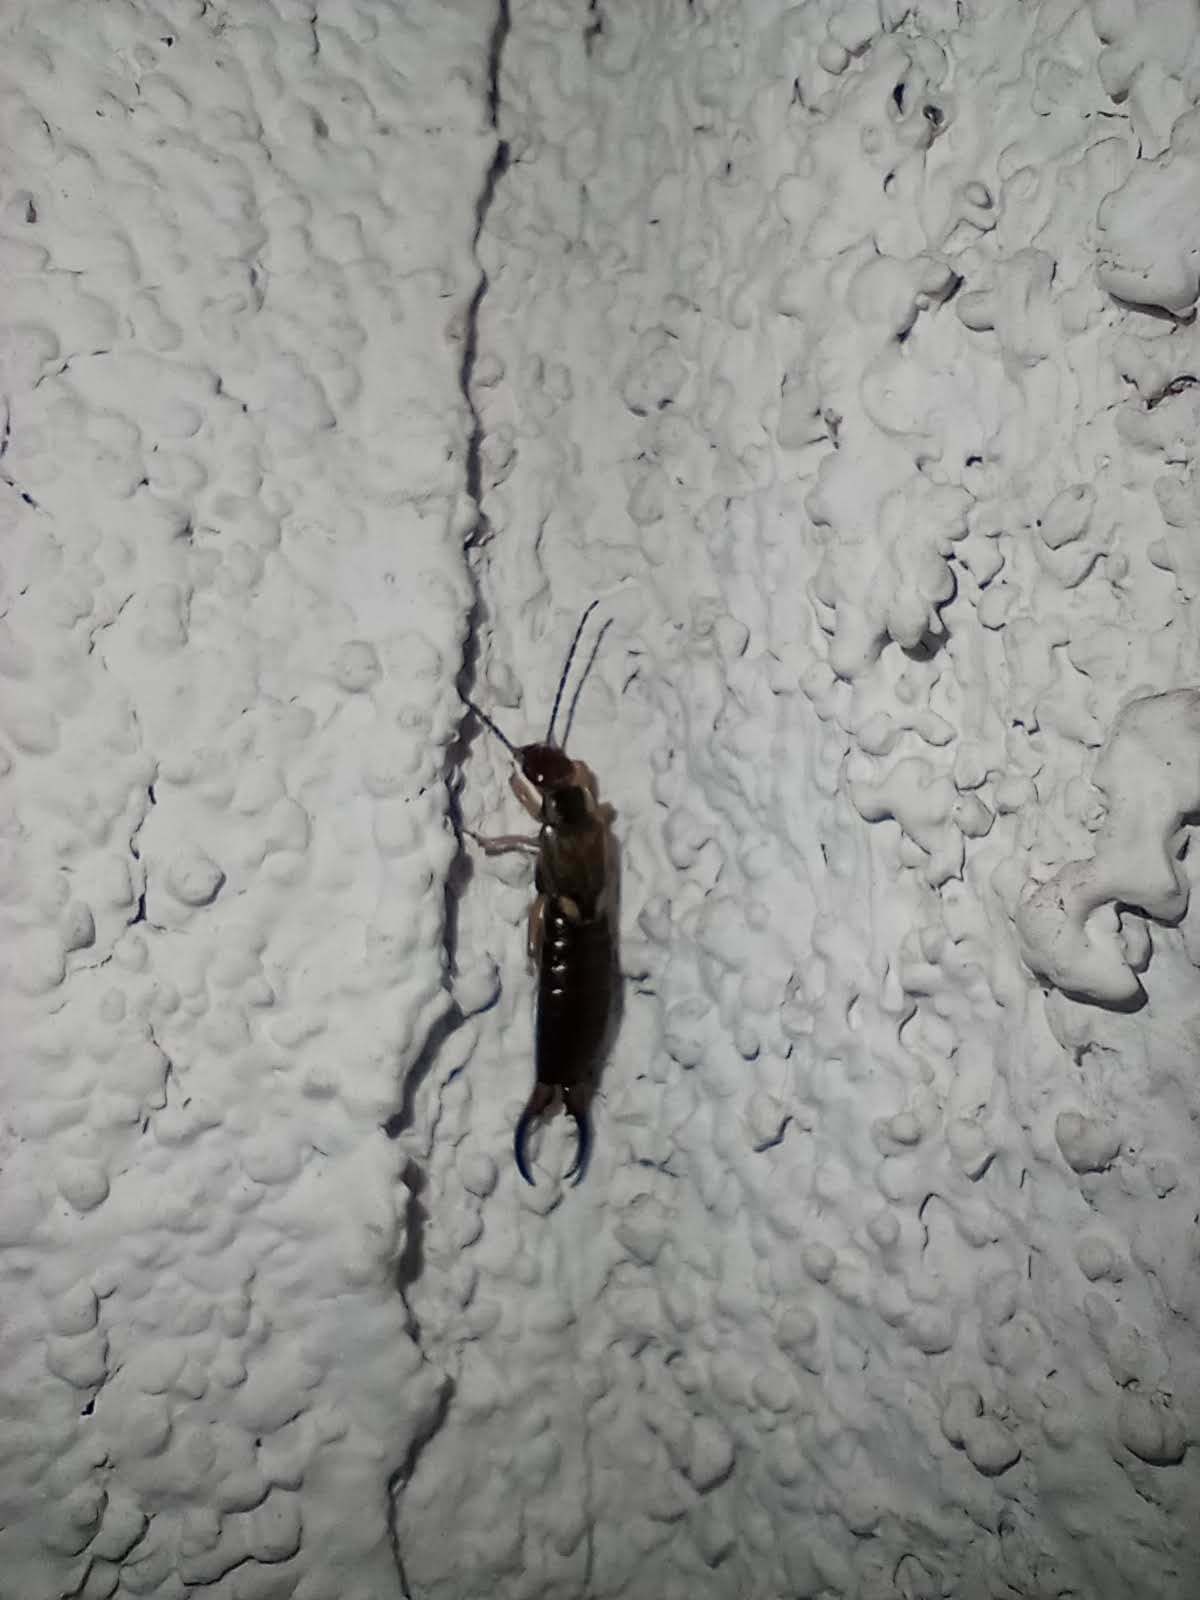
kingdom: Animalia
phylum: Arthropoda
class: Insecta
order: Dermaptera
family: Forficulidae
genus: Forficula
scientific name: Forficula
